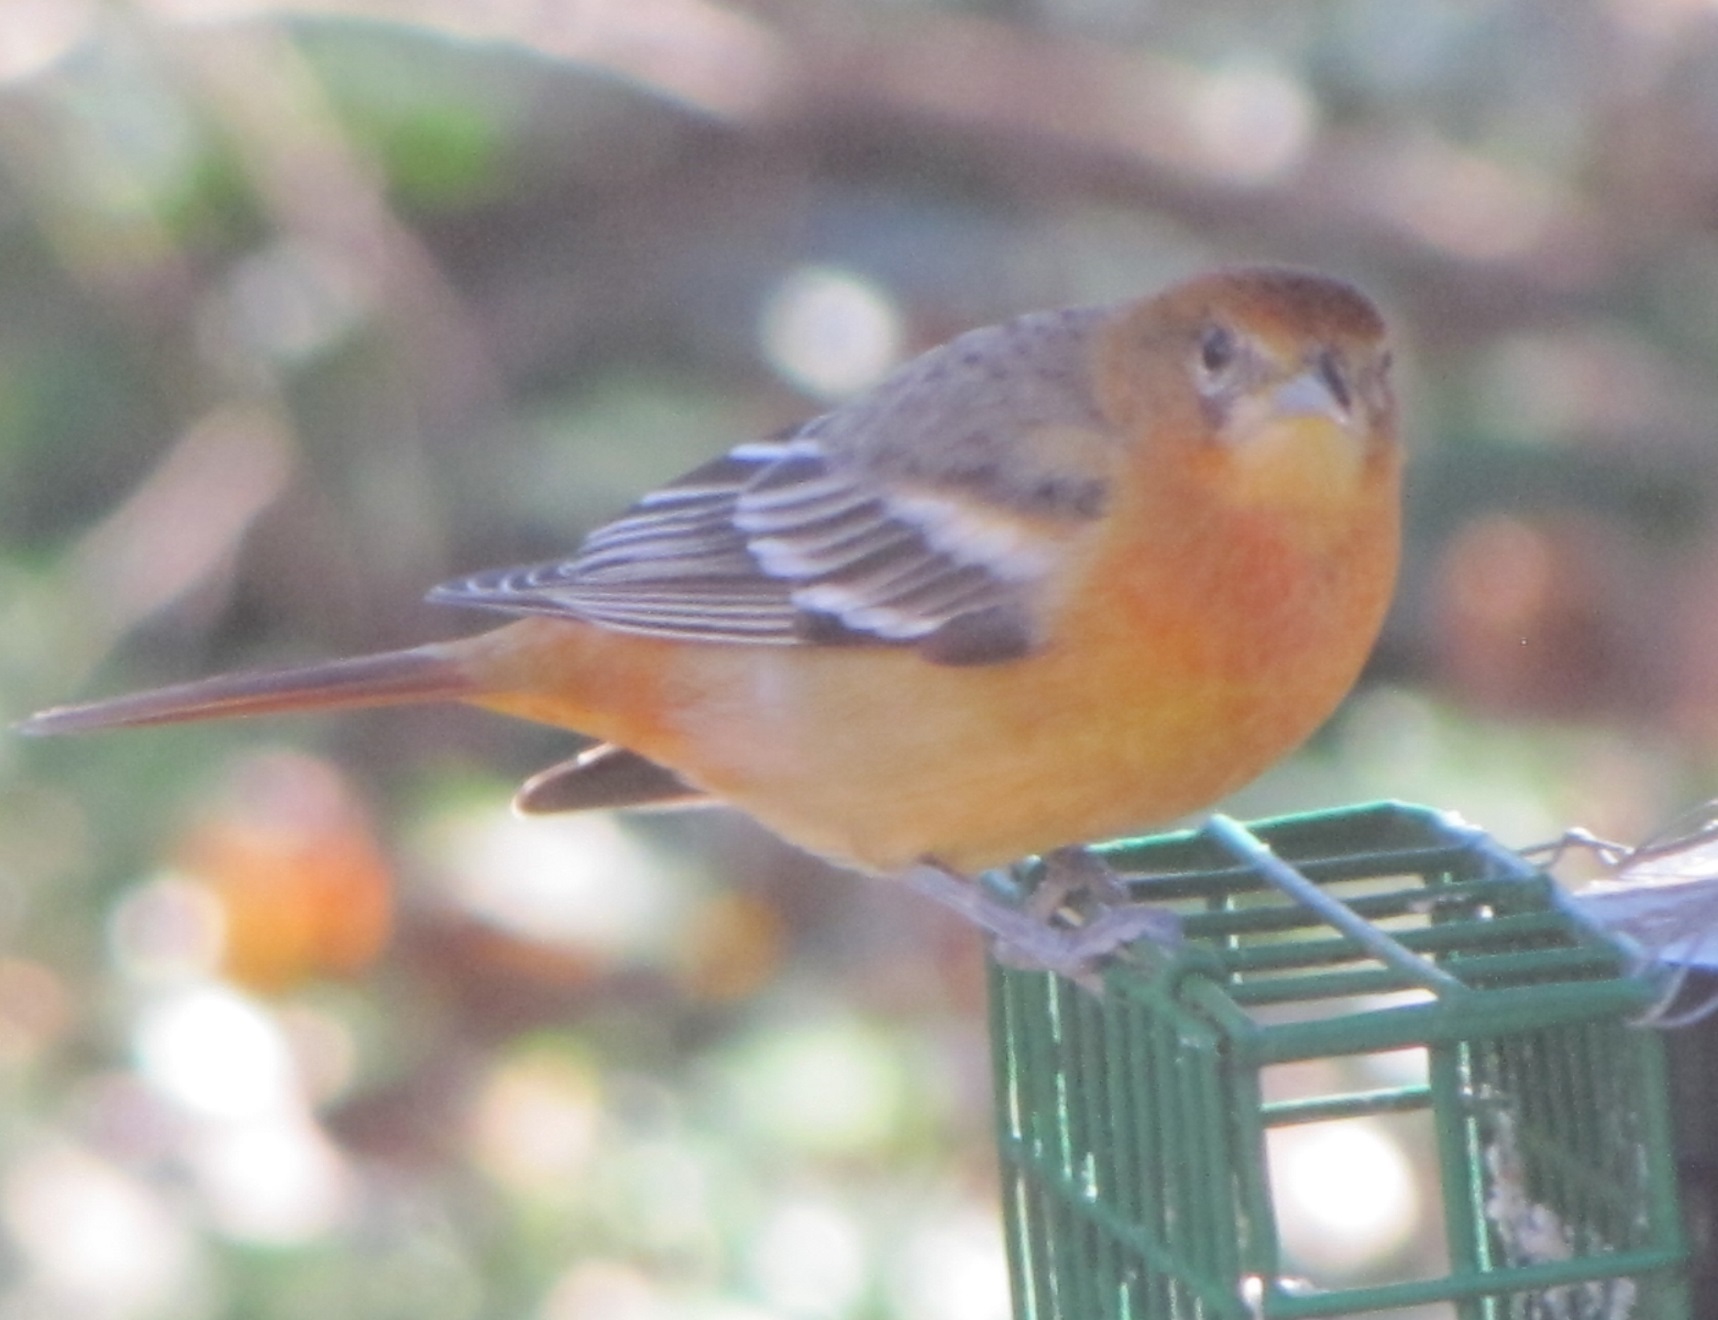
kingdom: Animalia
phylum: Chordata
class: Aves
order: Passeriformes
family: Icteridae
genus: Icterus
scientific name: Icterus galbula
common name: Baltimore oriole
